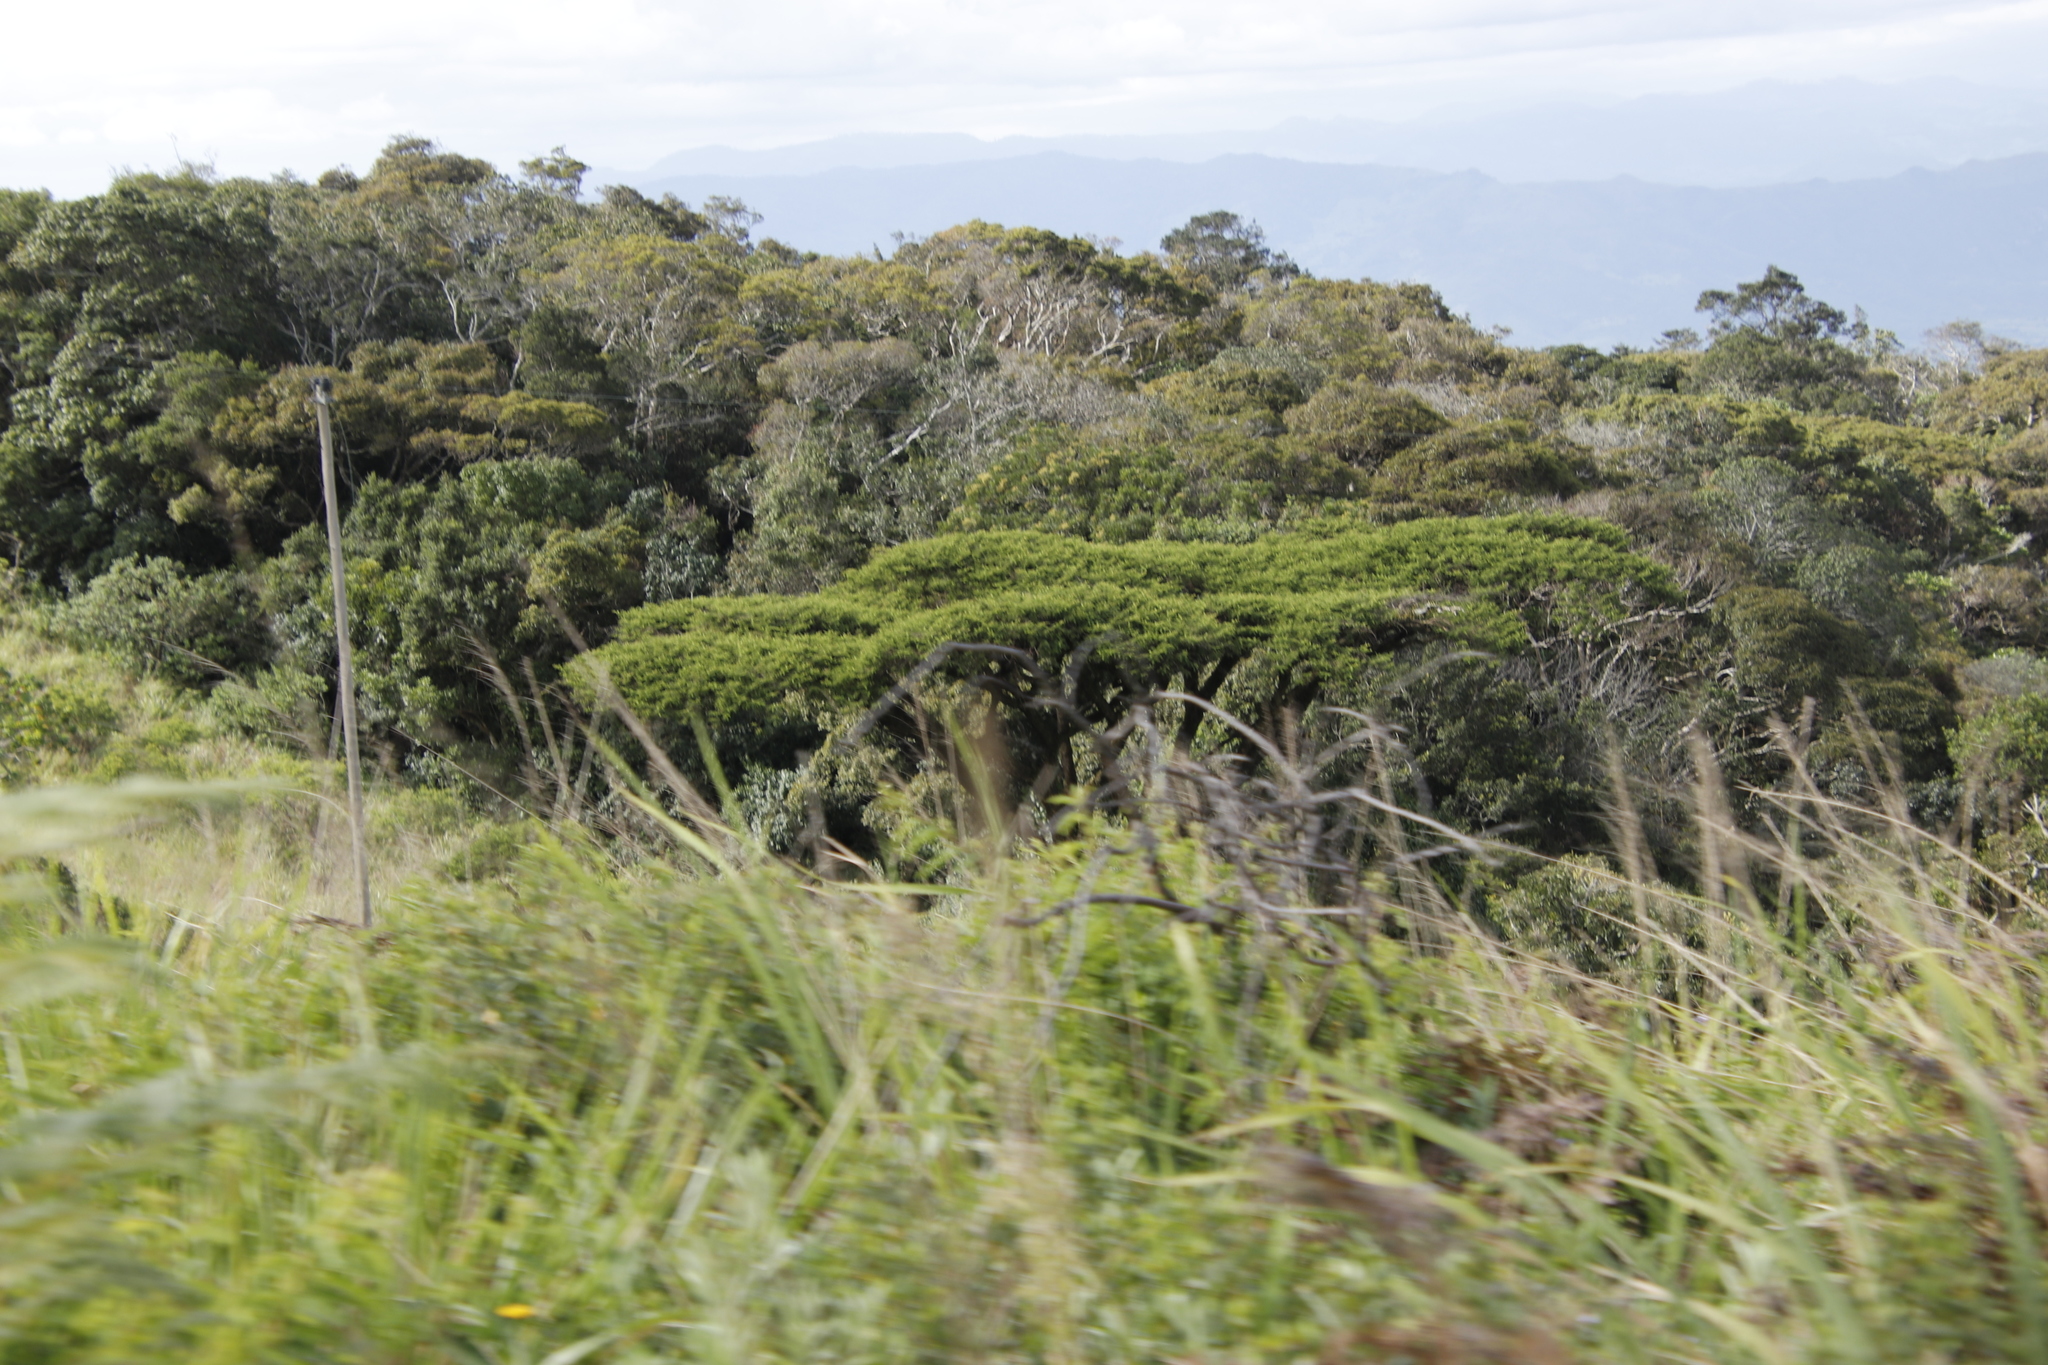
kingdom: Plantae
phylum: Tracheophyta
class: Magnoliopsida
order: Fabales
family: Fabaceae
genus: Vachellia
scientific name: Vachellia abyssinica
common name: Nyanga flat-top
